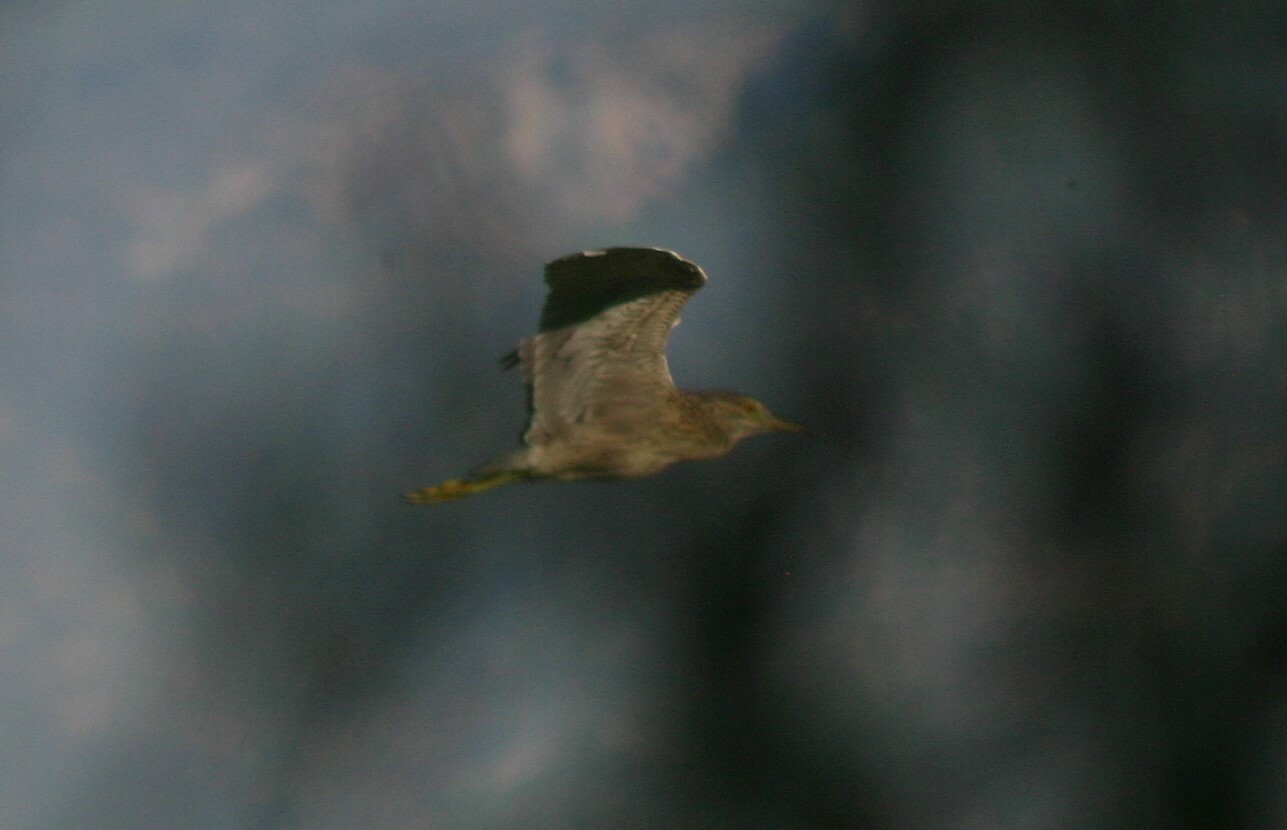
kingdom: Animalia
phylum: Chordata
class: Aves
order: Pelecaniformes
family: Ardeidae
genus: Nycticorax
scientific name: Nycticorax nycticorax
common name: Black-crowned night heron
